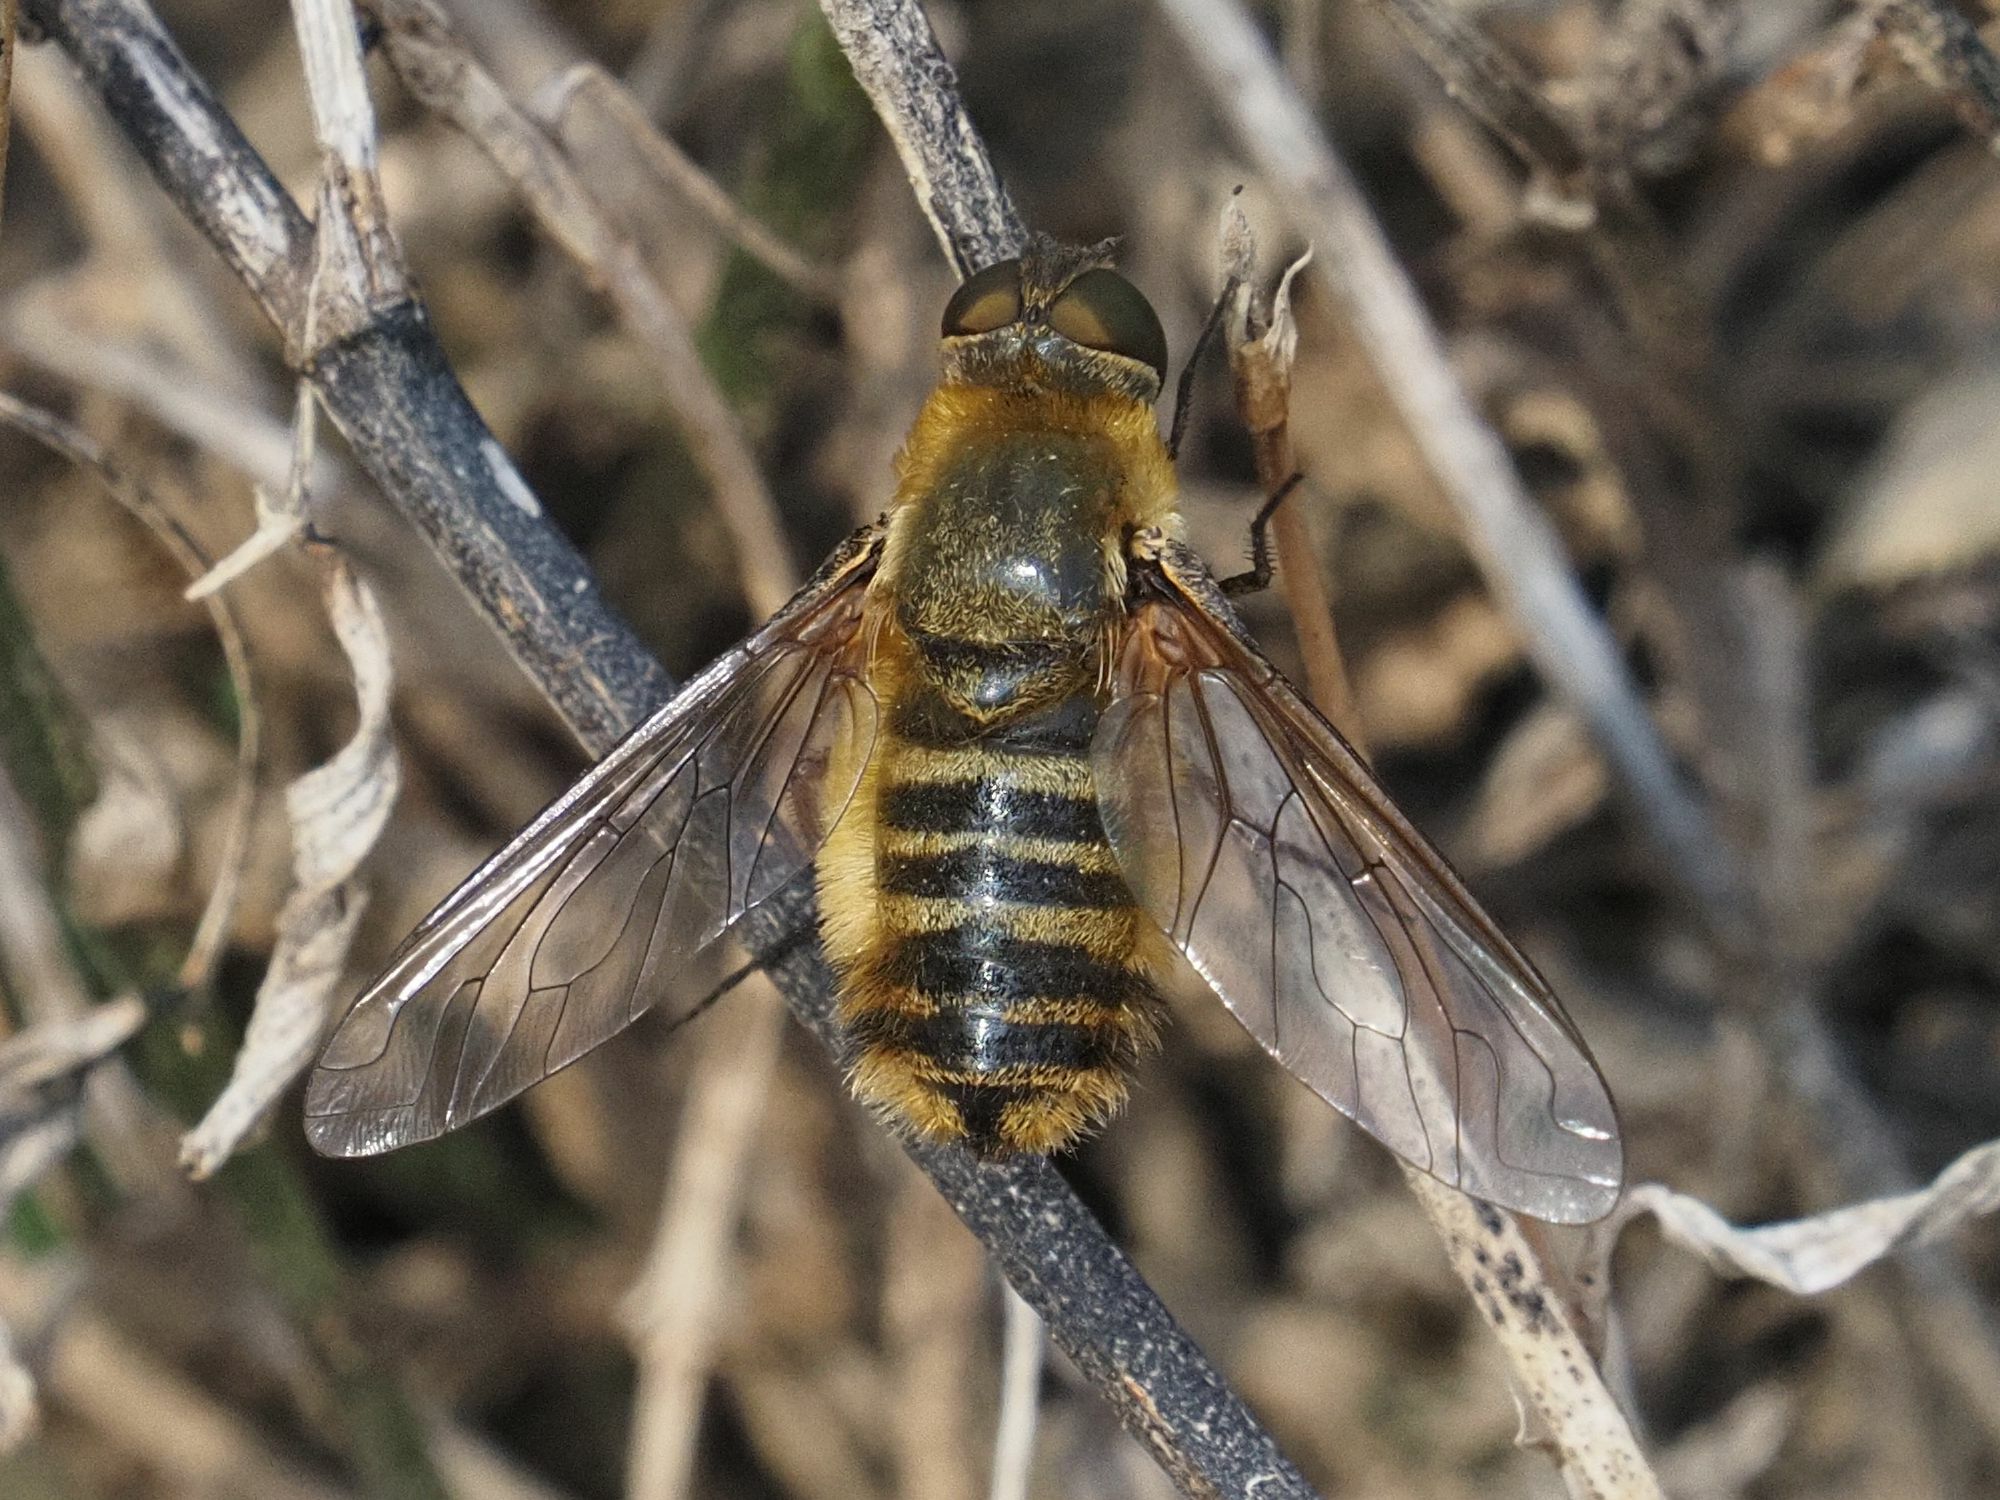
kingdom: Animalia
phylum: Arthropoda
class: Insecta
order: Diptera
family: Bombyliidae
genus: Villa
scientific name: Villa hottentotta
